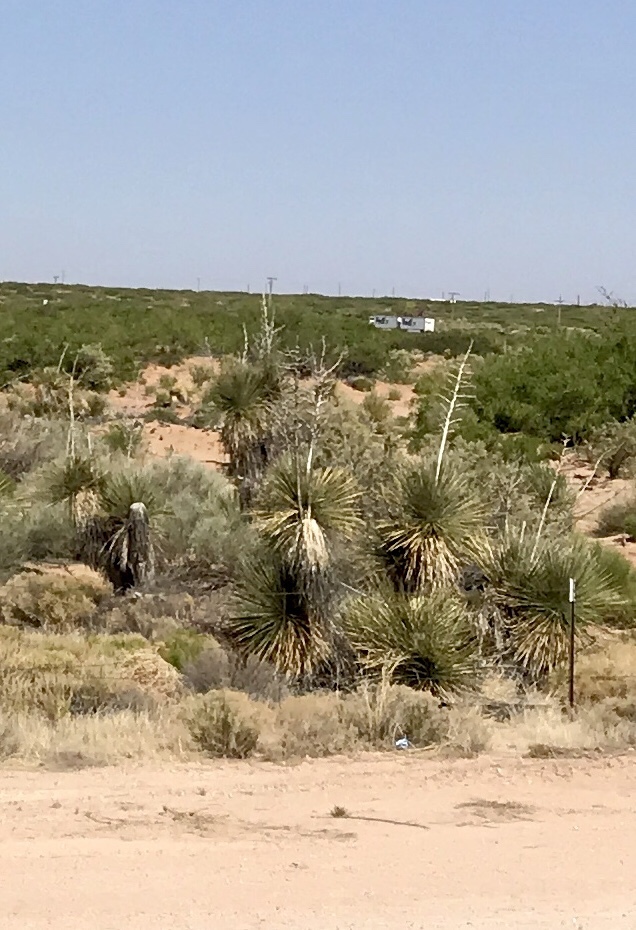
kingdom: Plantae
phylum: Tracheophyta
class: Liliopsida
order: Asparagales
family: Asparagaceae
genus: Yucca
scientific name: Yucca elata
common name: Palmella
